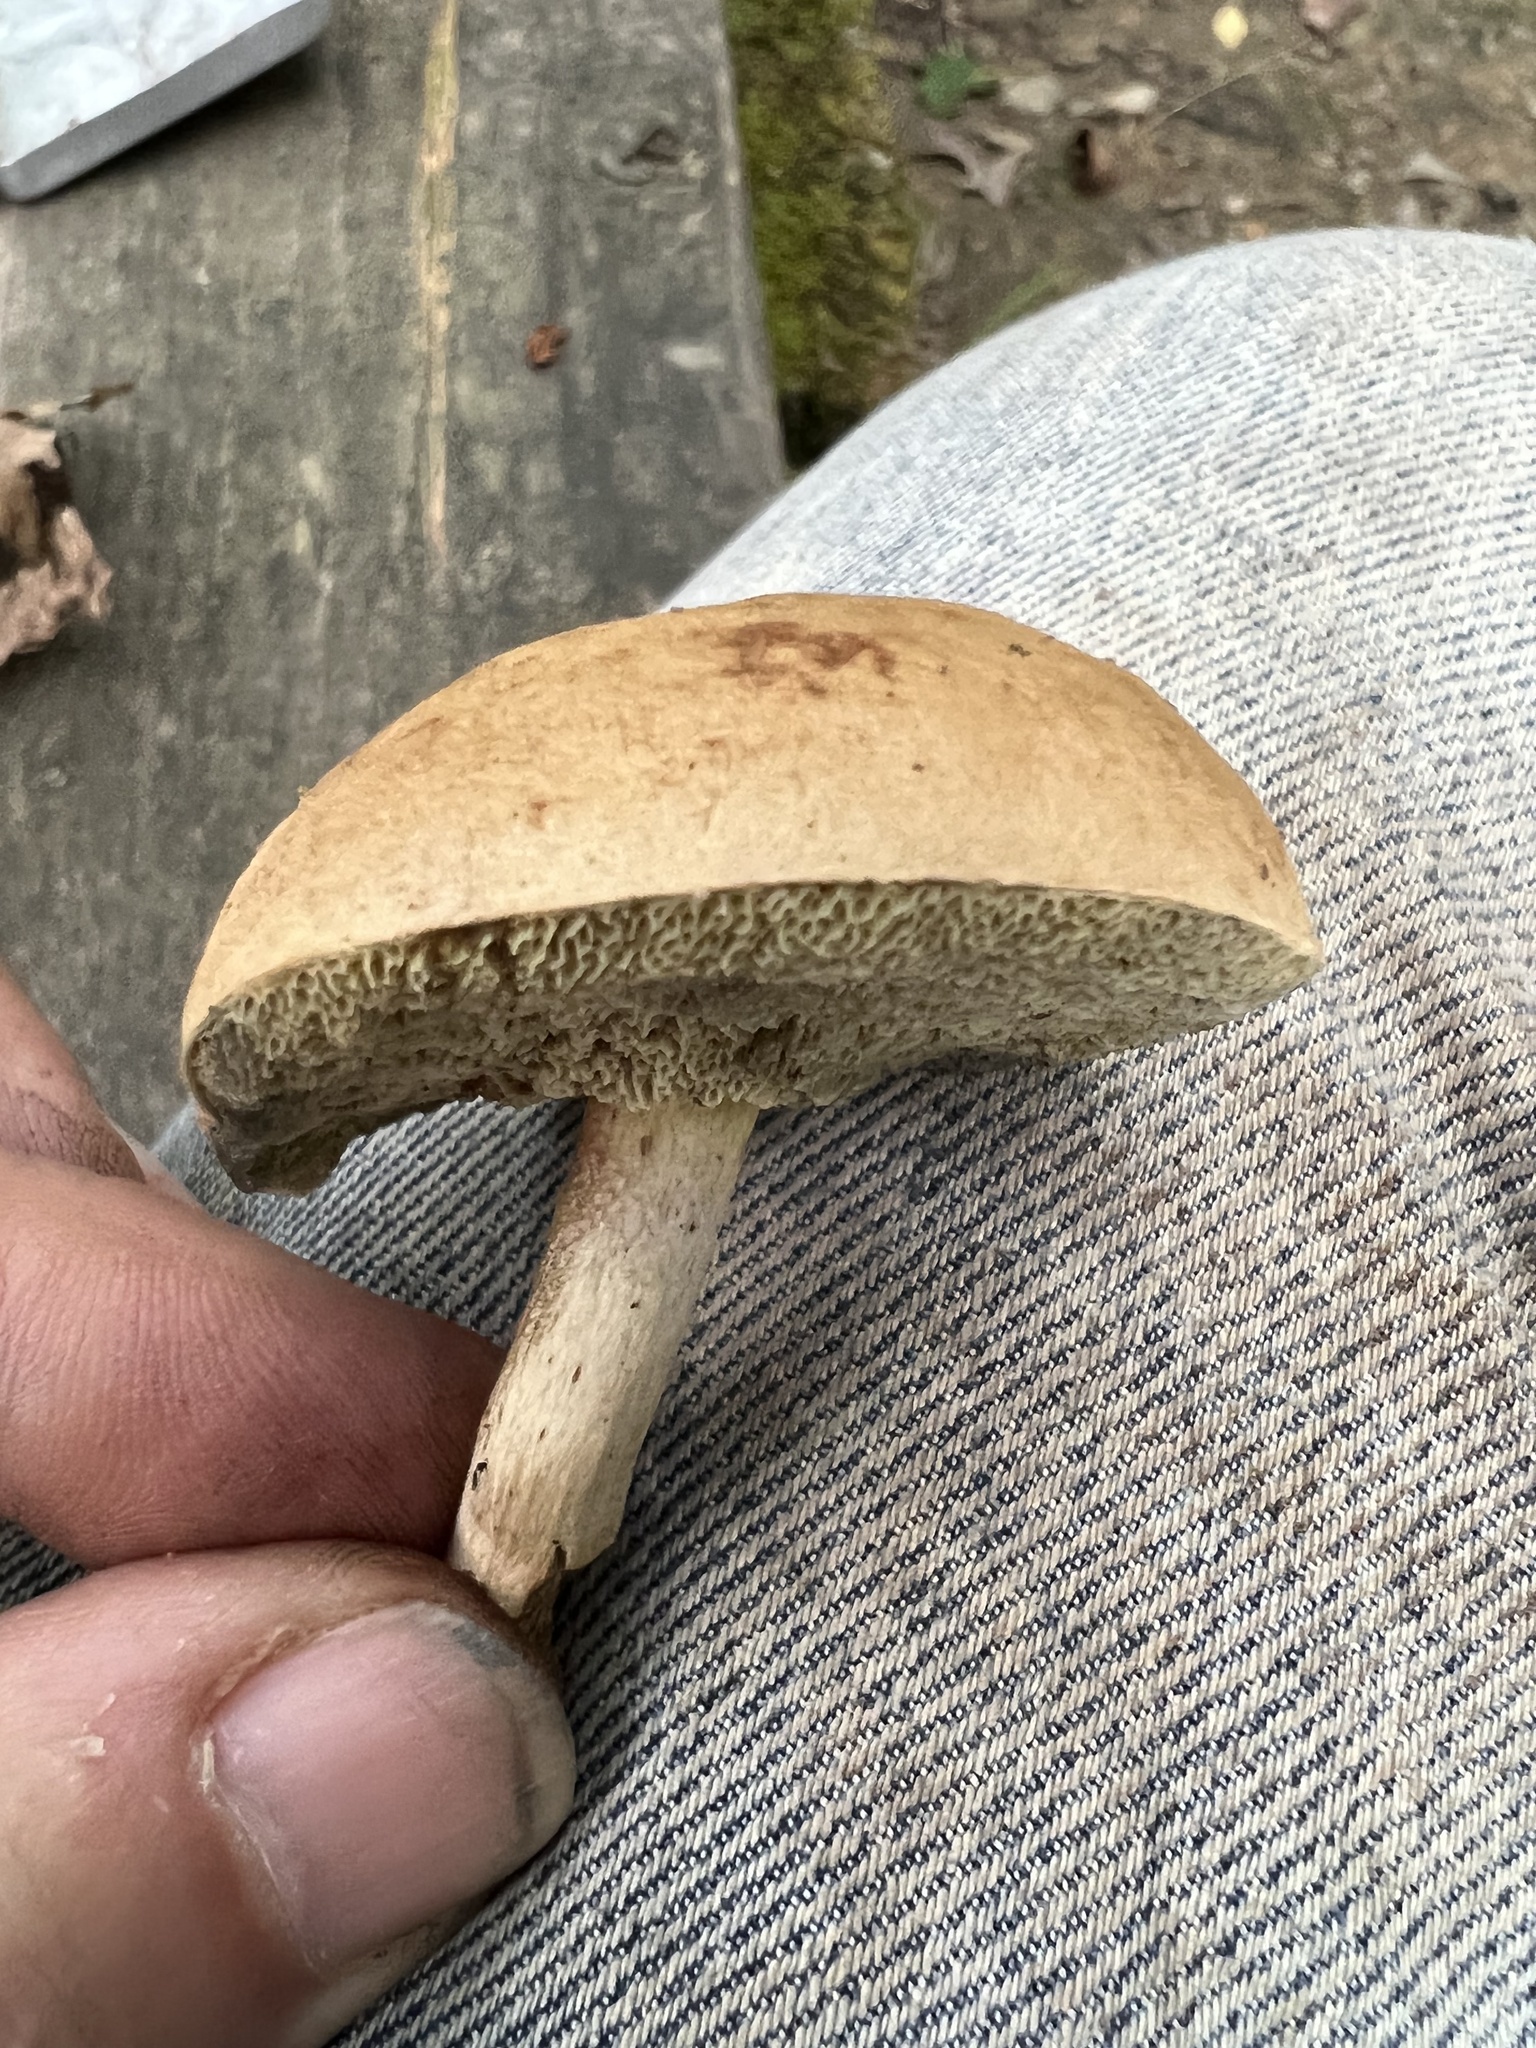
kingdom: Fungi
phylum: Basidiomycota
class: Agaricomycetes
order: Boletales
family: Boletaceae
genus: Imleria
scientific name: Imleria pallida
